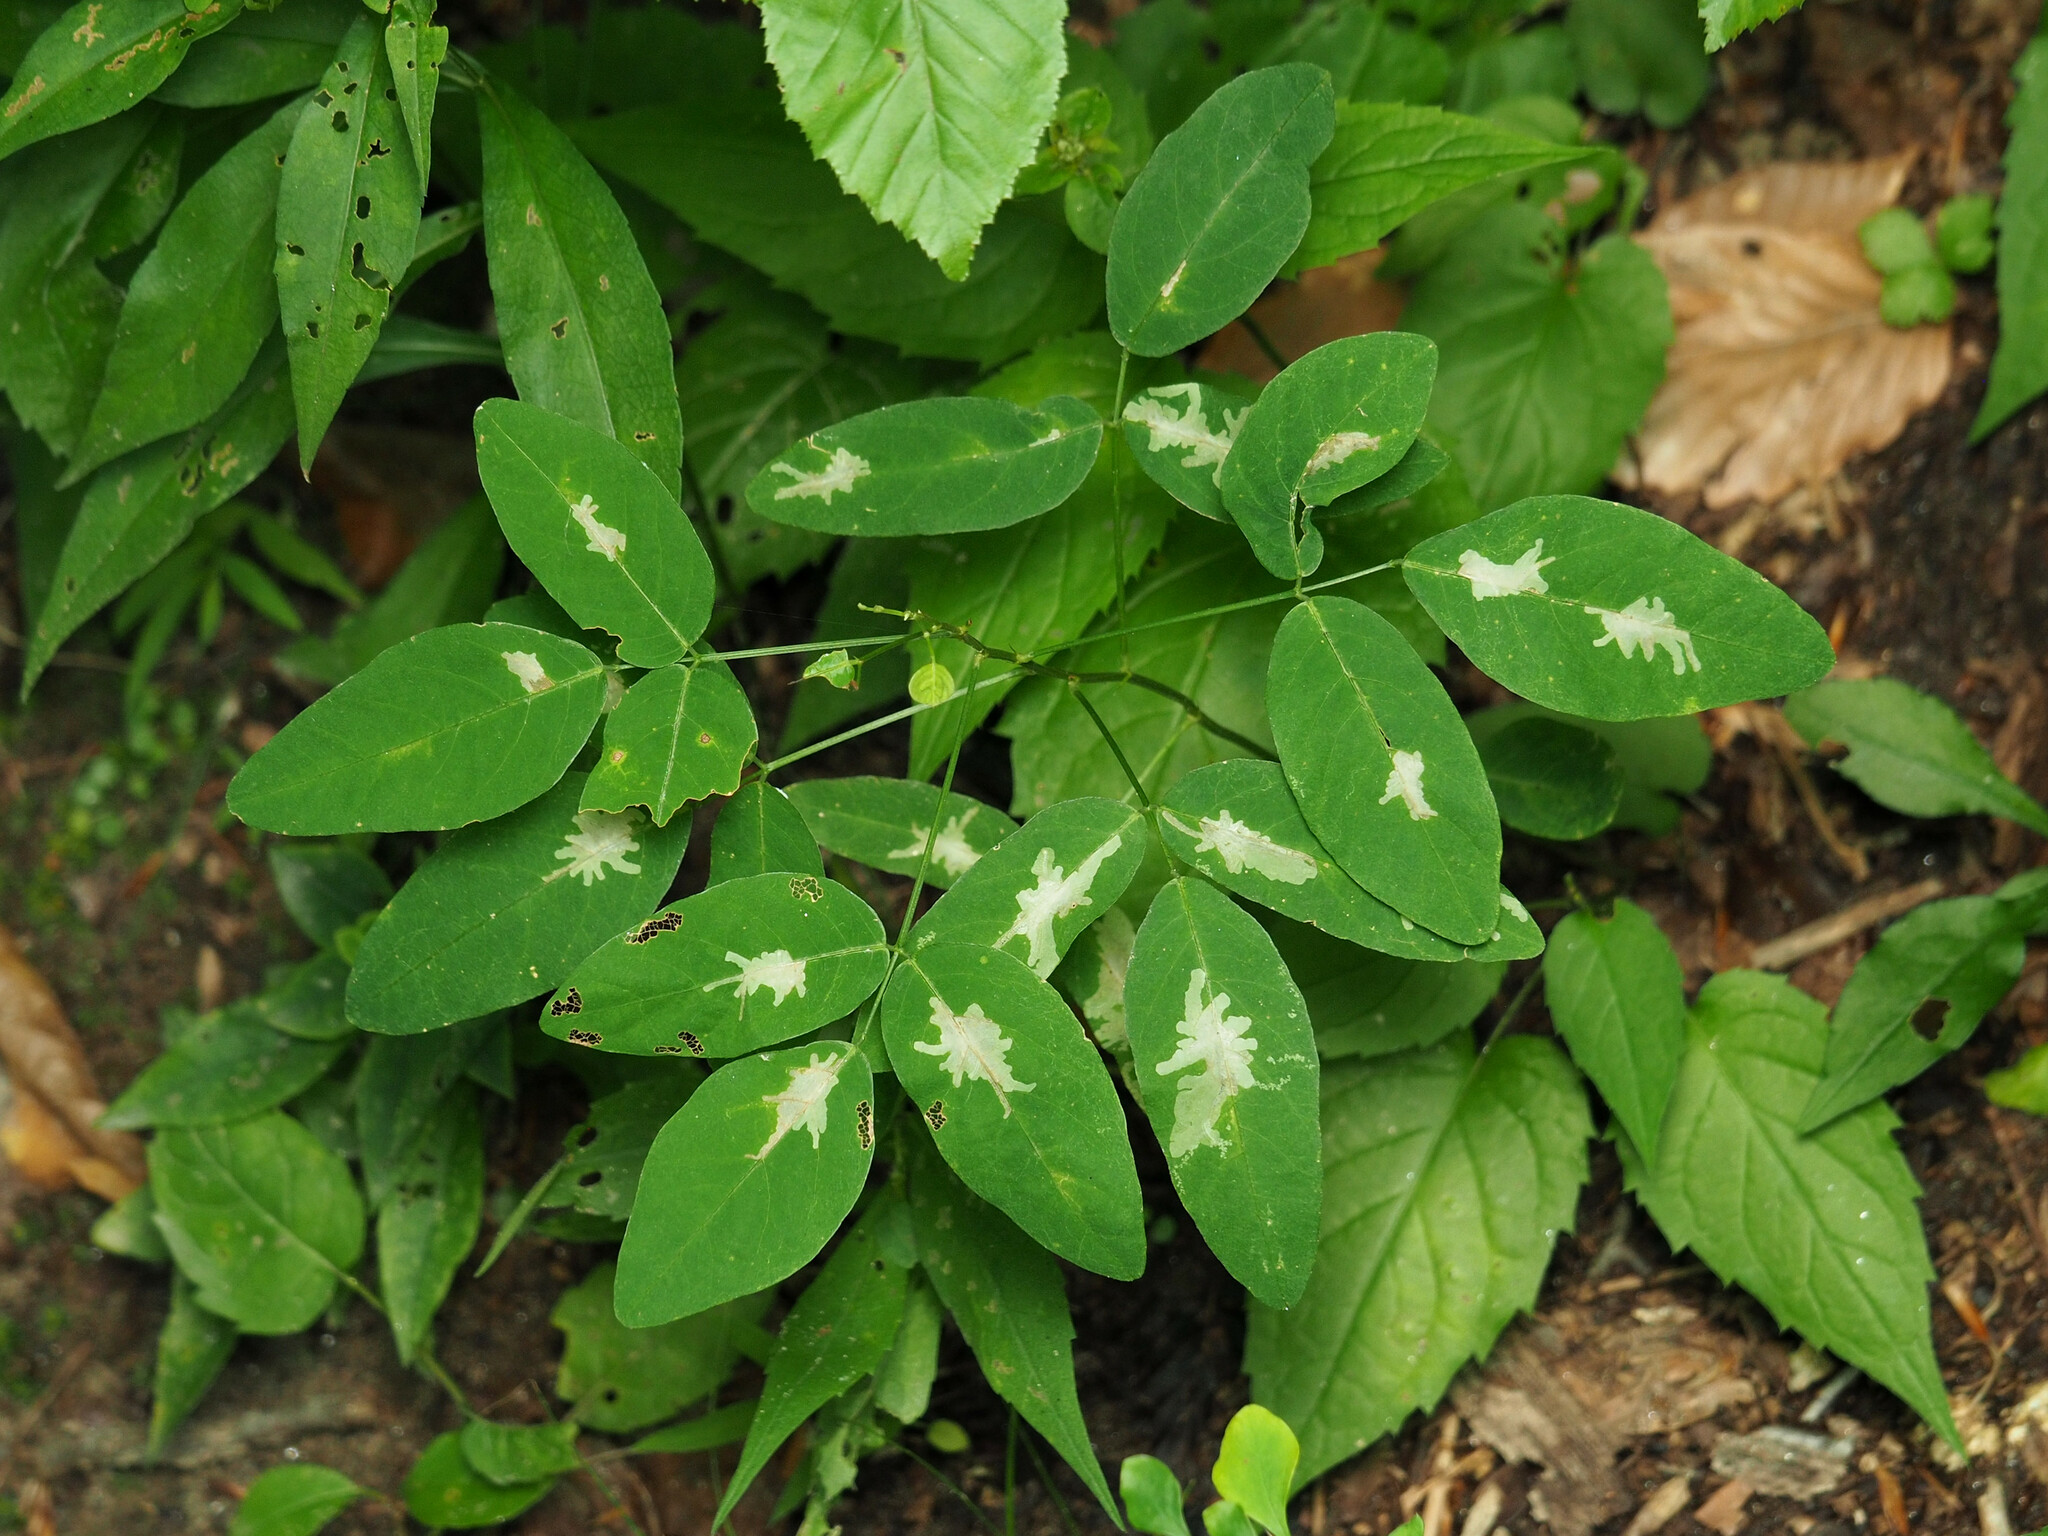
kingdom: Animalia
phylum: Arthropoda
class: Insecta
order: Lepidoptera
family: Gracillariidae
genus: Parectopa
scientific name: Parectopa robiniella
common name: Locust digitate leafminer
